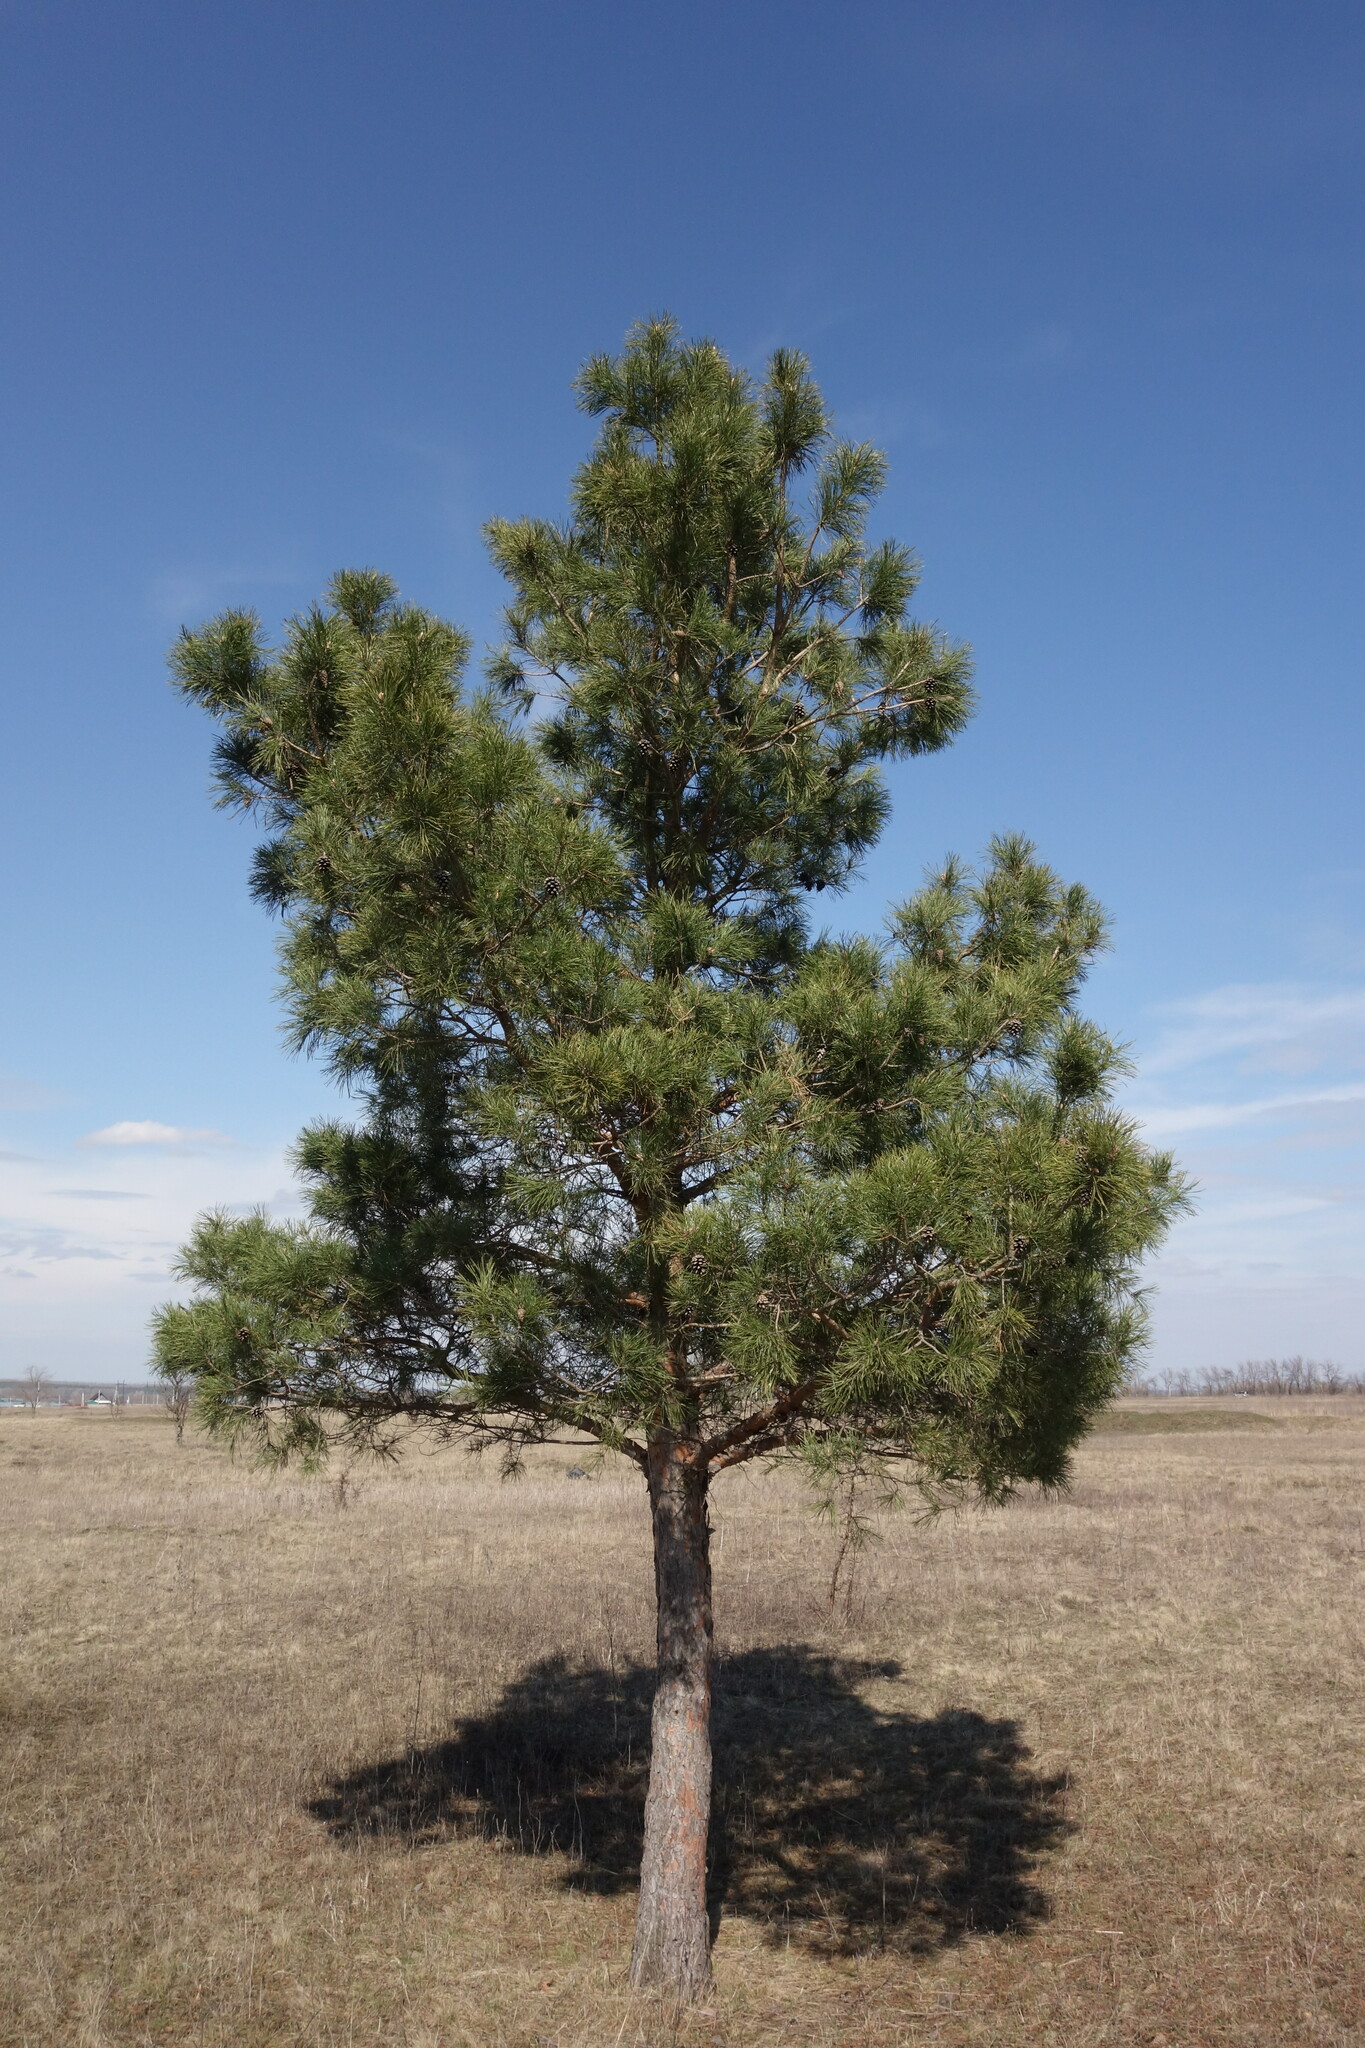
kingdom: Plantae
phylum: Tracheophyta
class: Pinopsida
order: Pinales
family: Pinaceae
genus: Pinus
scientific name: Pinus sylvestris
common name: Scots pine
